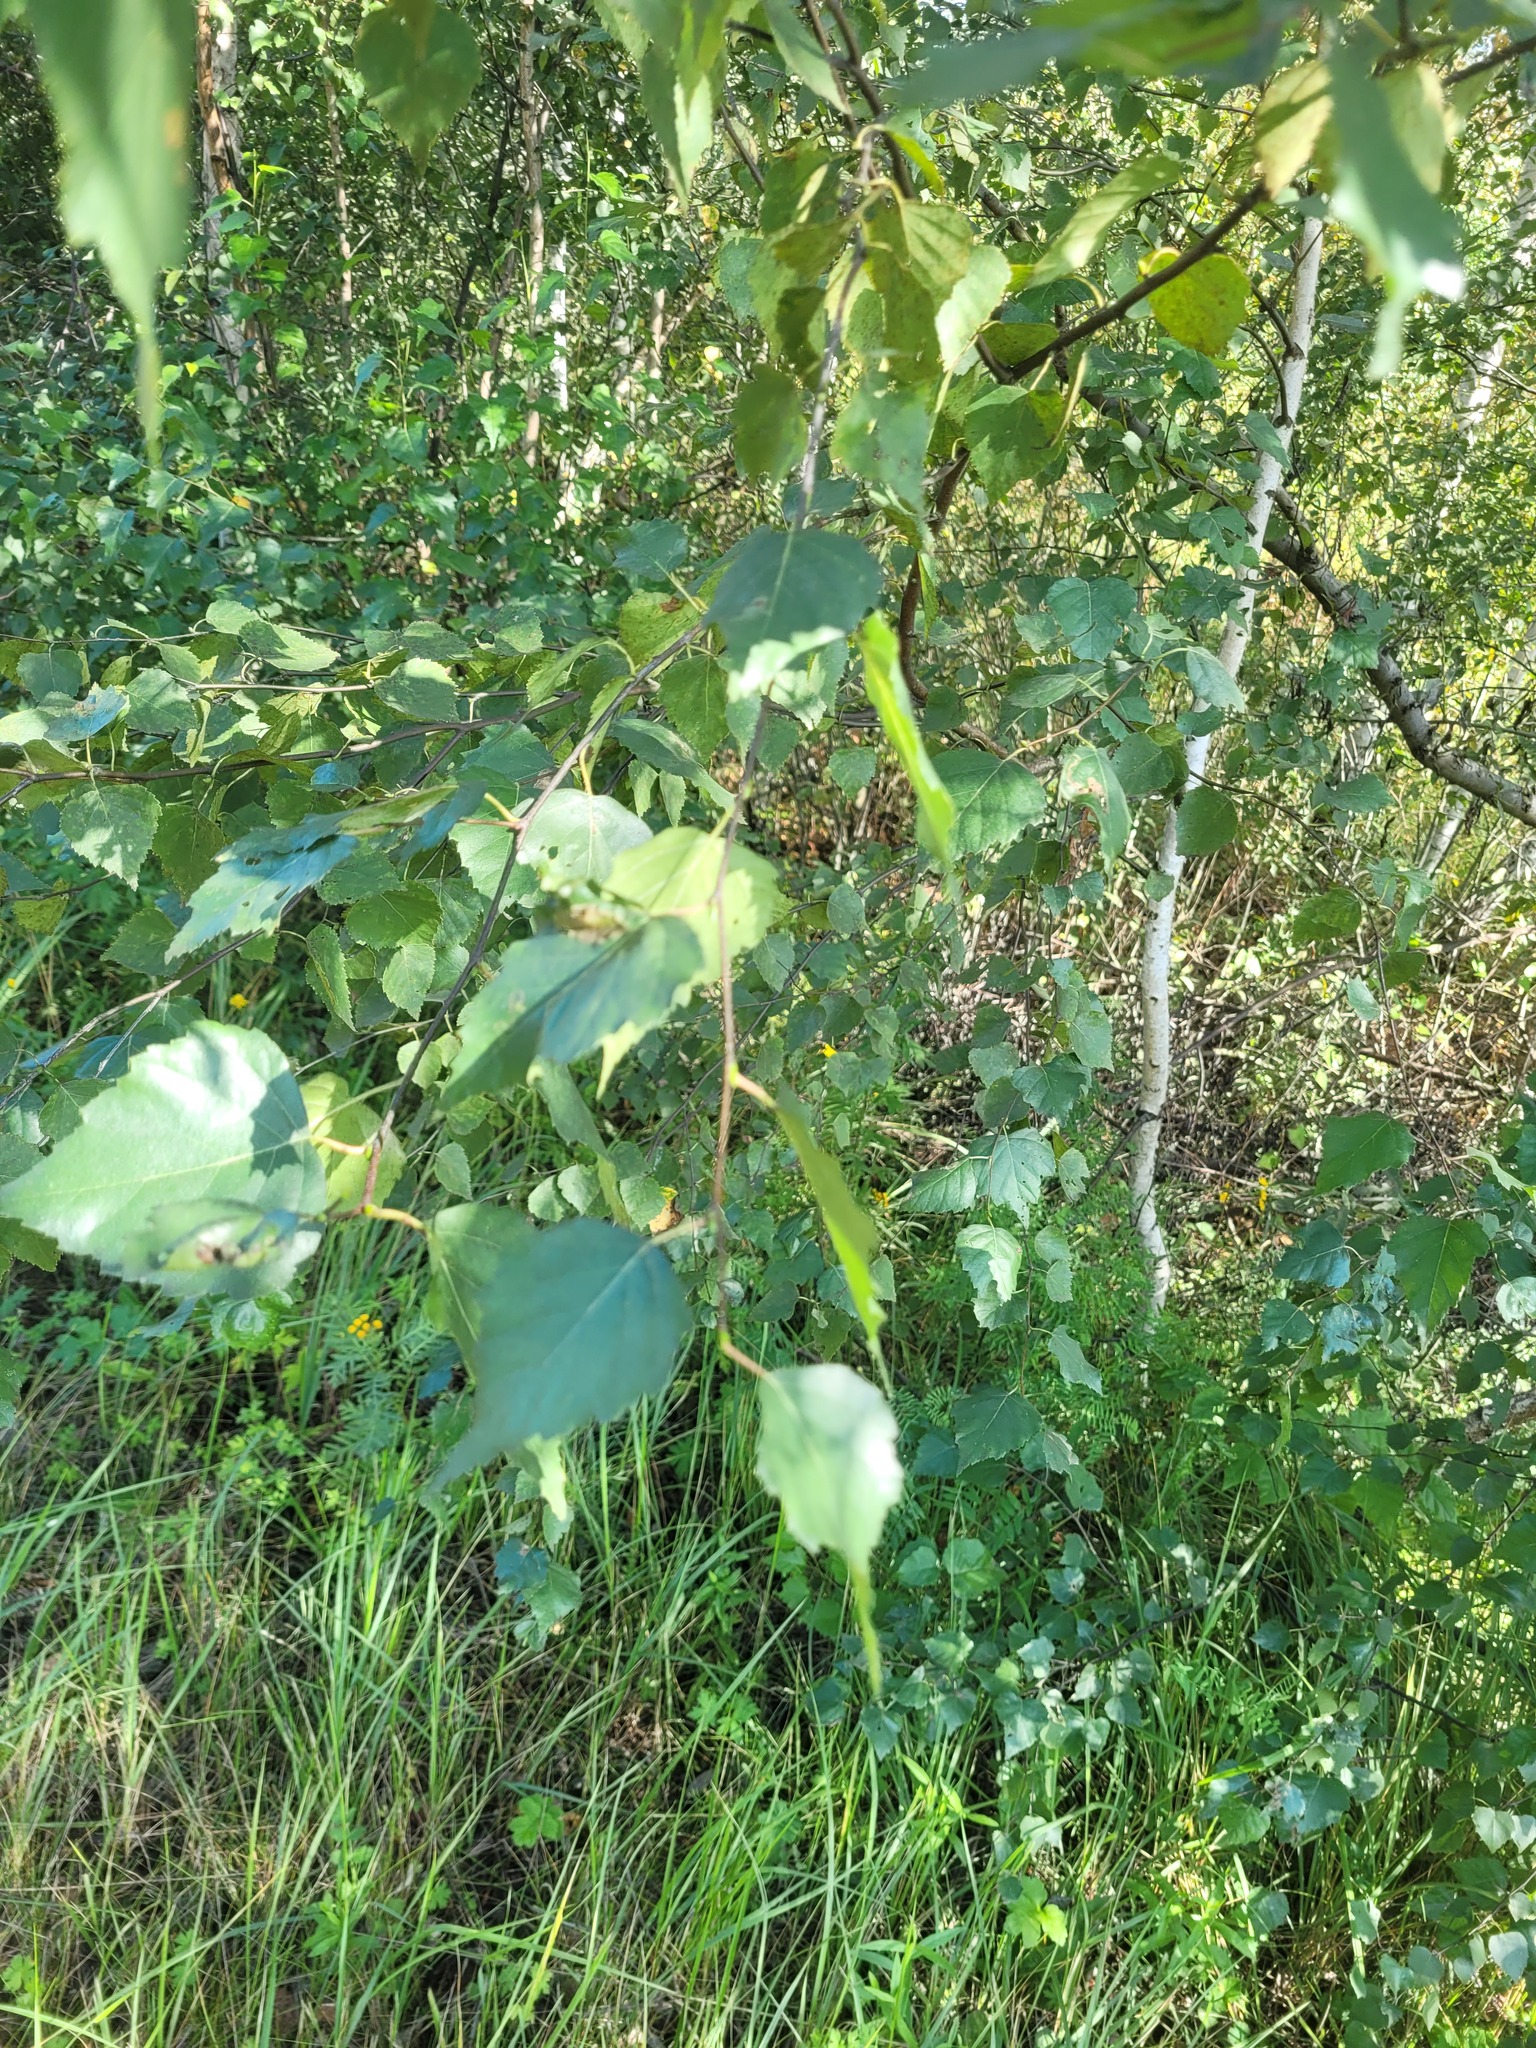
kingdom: Plantae
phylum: Tracheophyta
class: Magnoliopsida
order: Fagales
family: Betulaceae
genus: Betula
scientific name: Betula pendula
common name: Silver birch
